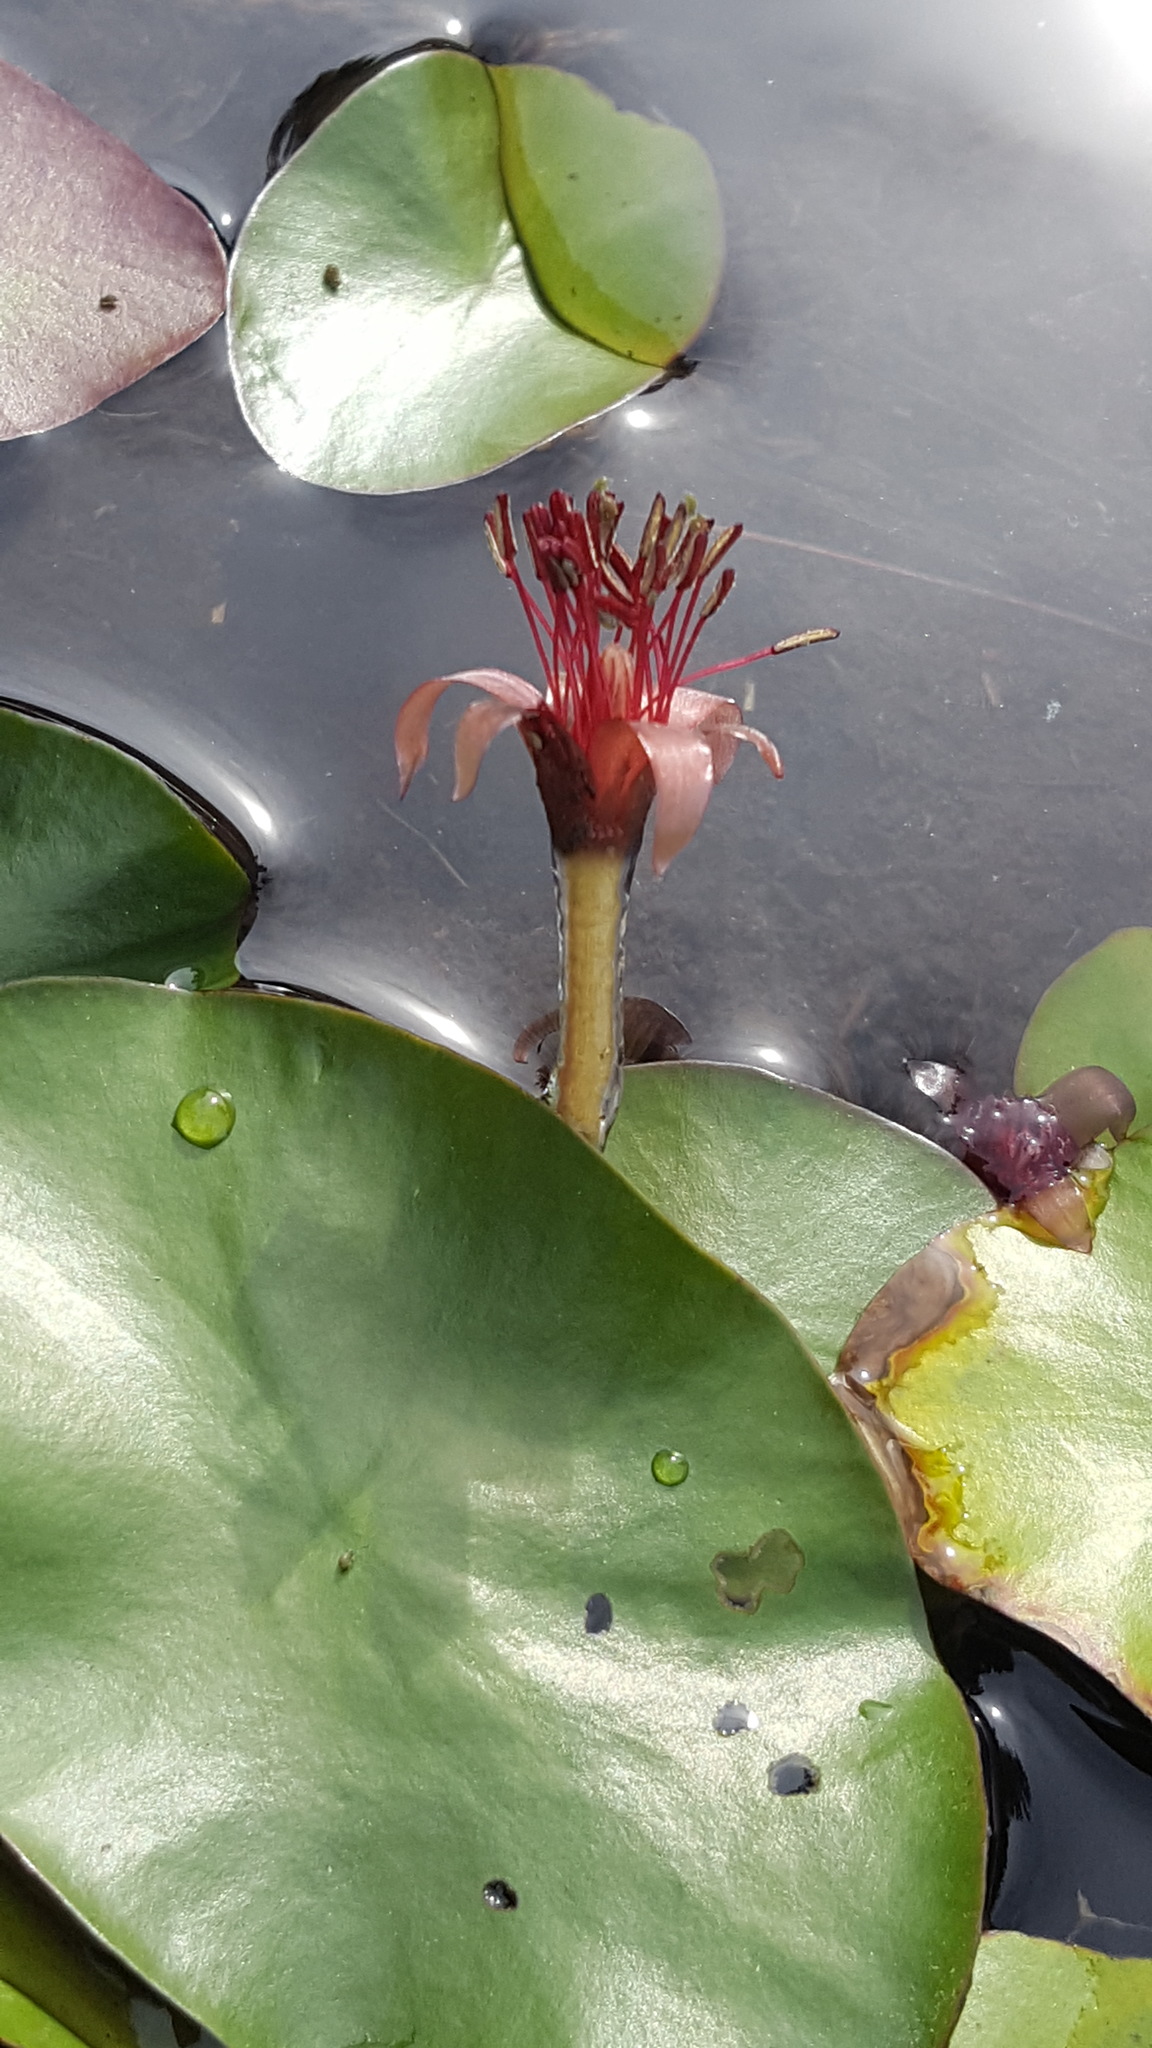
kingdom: Plantae
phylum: Tracheophyta
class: Magnoliopsida
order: Nymphaeales
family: Cabombaceae
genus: Brasenia
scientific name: Brasenia schreberi
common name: Water-shield
